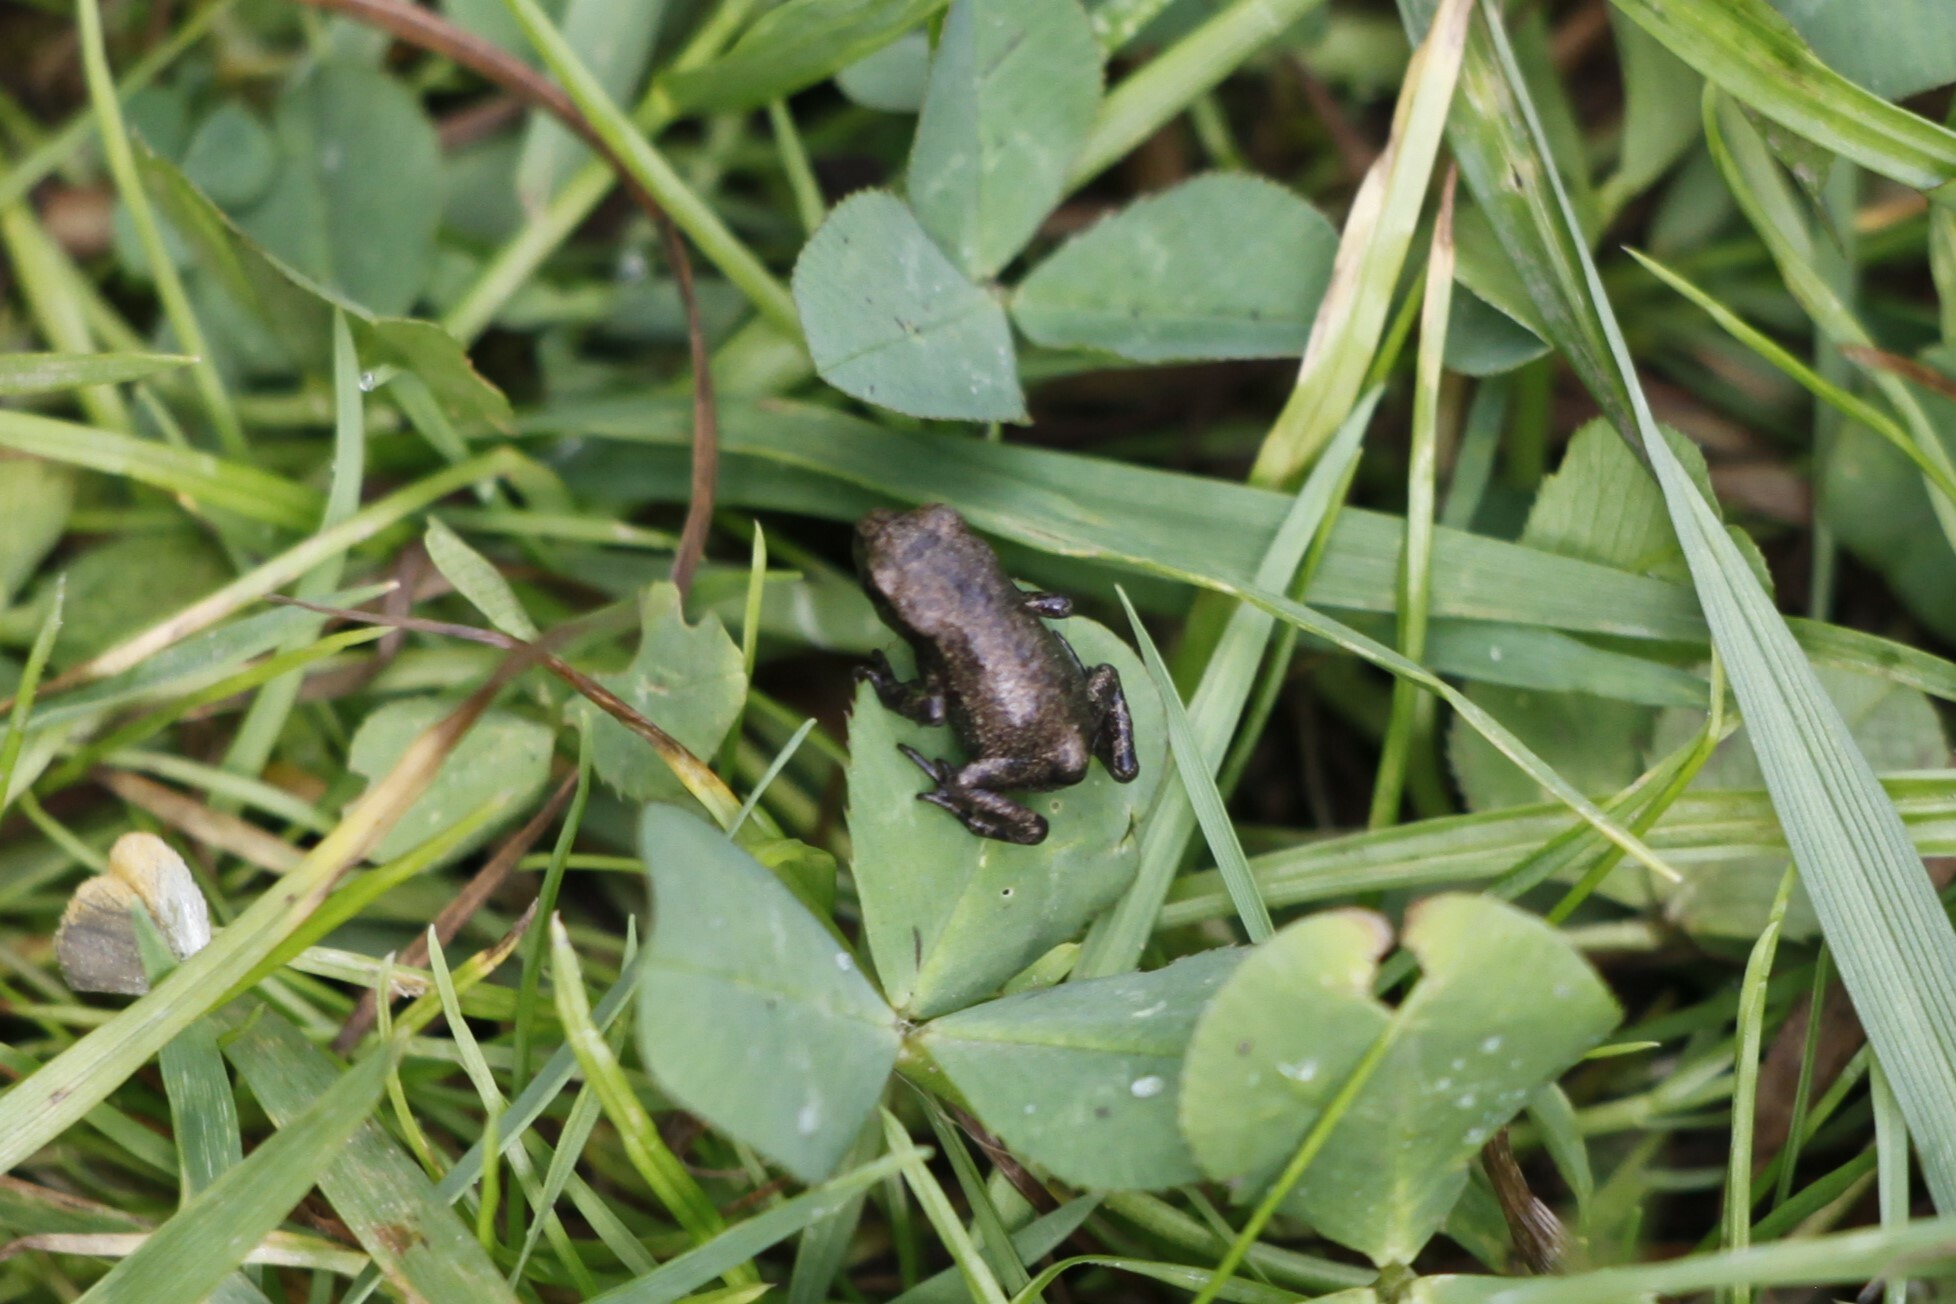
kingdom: Animalia
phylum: Chordata
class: Amphibia
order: Anura
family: Bufonidae
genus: Bufo
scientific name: Bufo bufo
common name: Common toad
